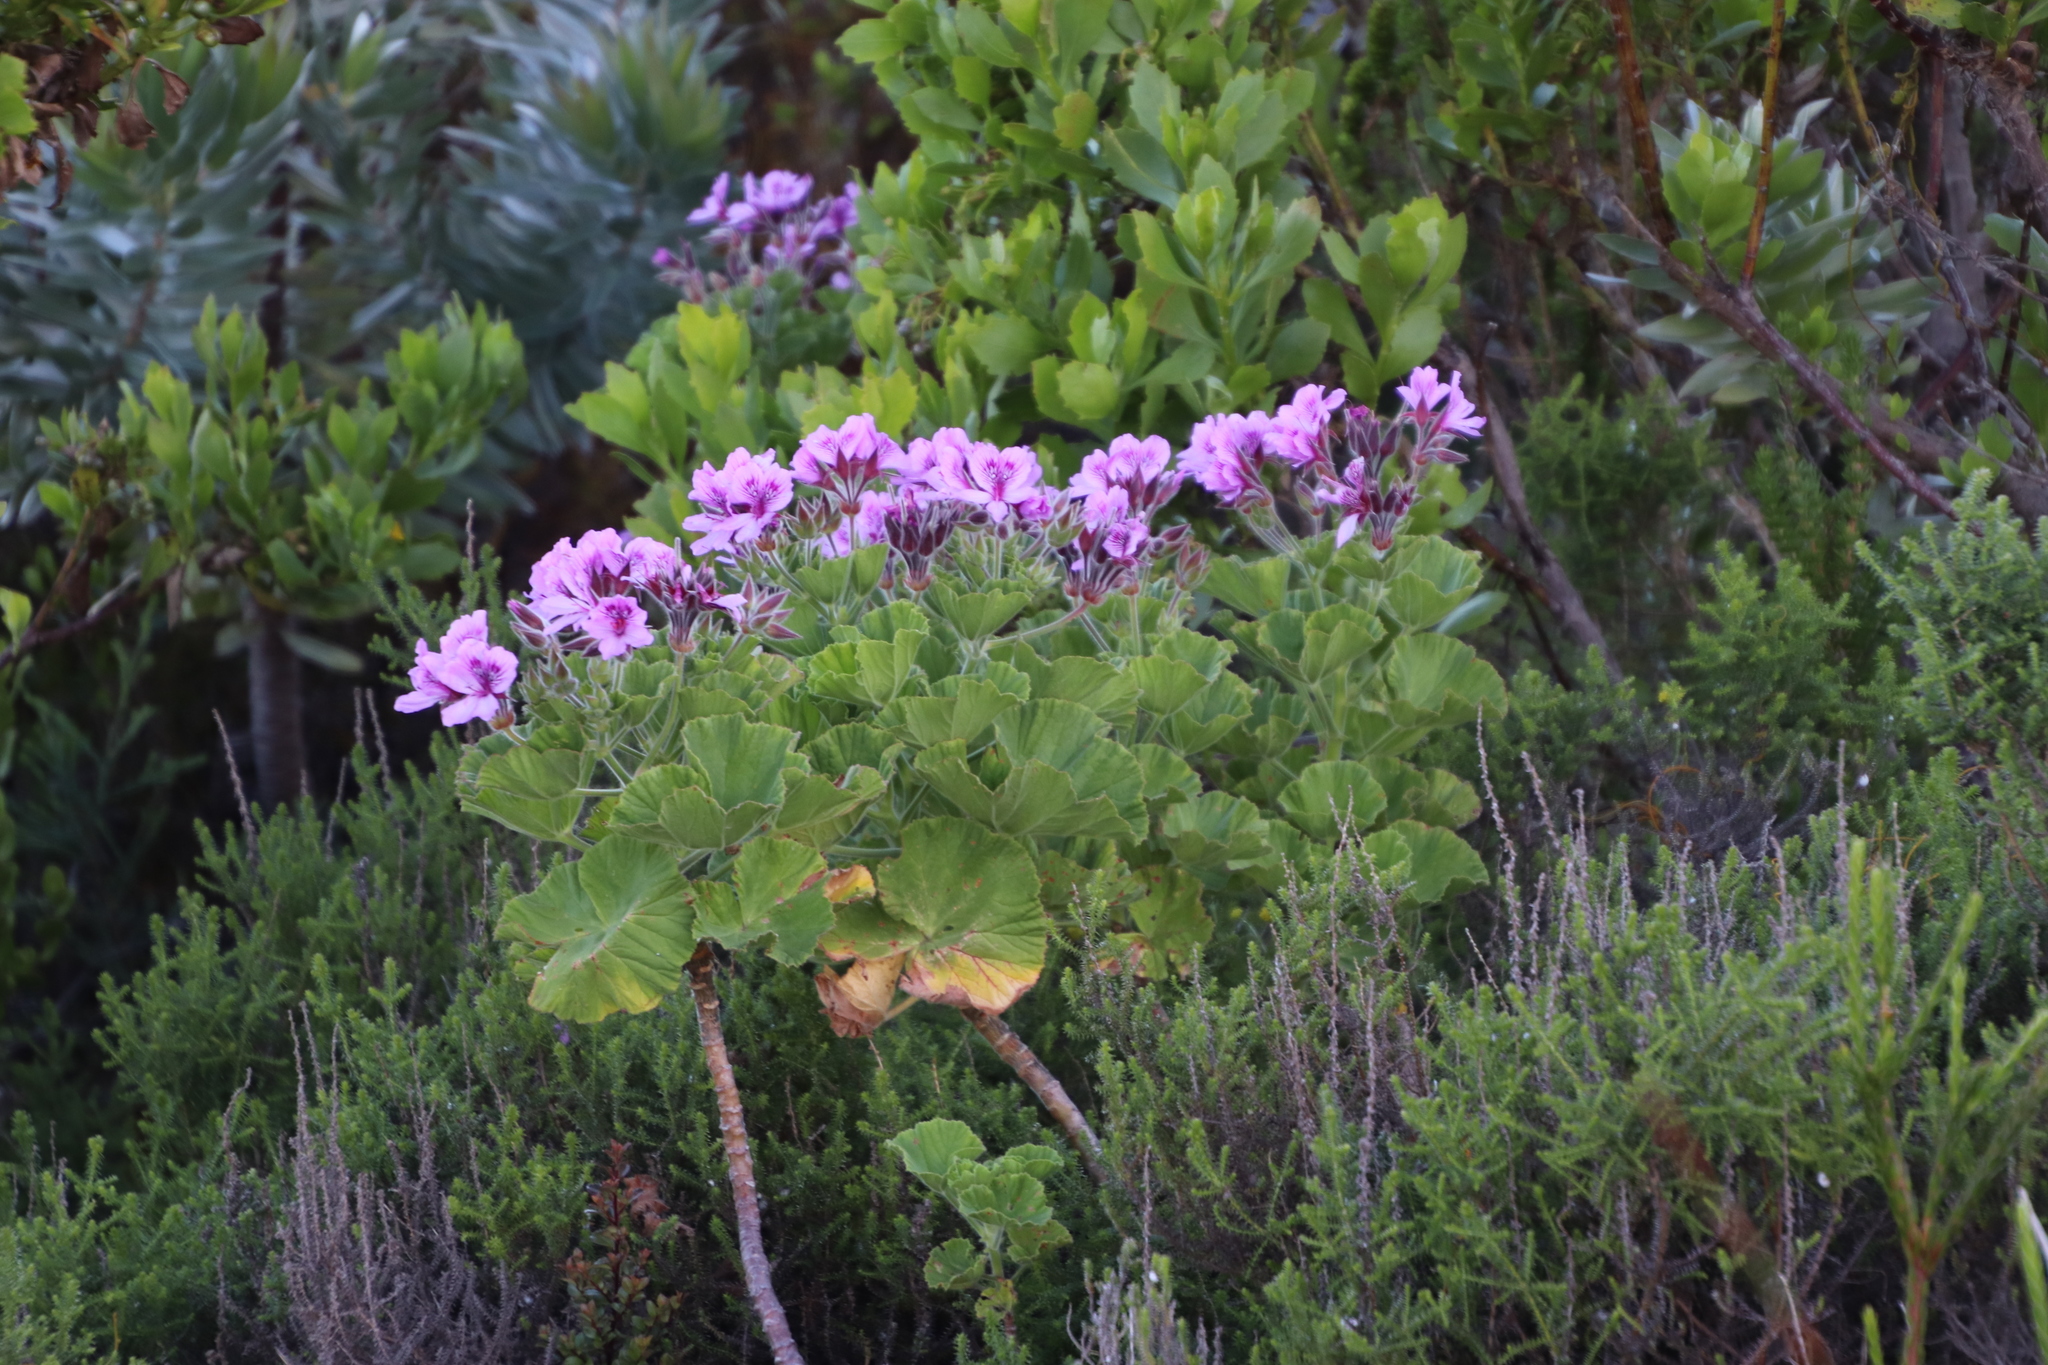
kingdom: Plantae
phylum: Tracheophyta
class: Magnoliopsida
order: Geraniales
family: Geraniaceae
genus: Pelargonium
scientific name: Pelargonium cucullatum
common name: Tree pelargonium
